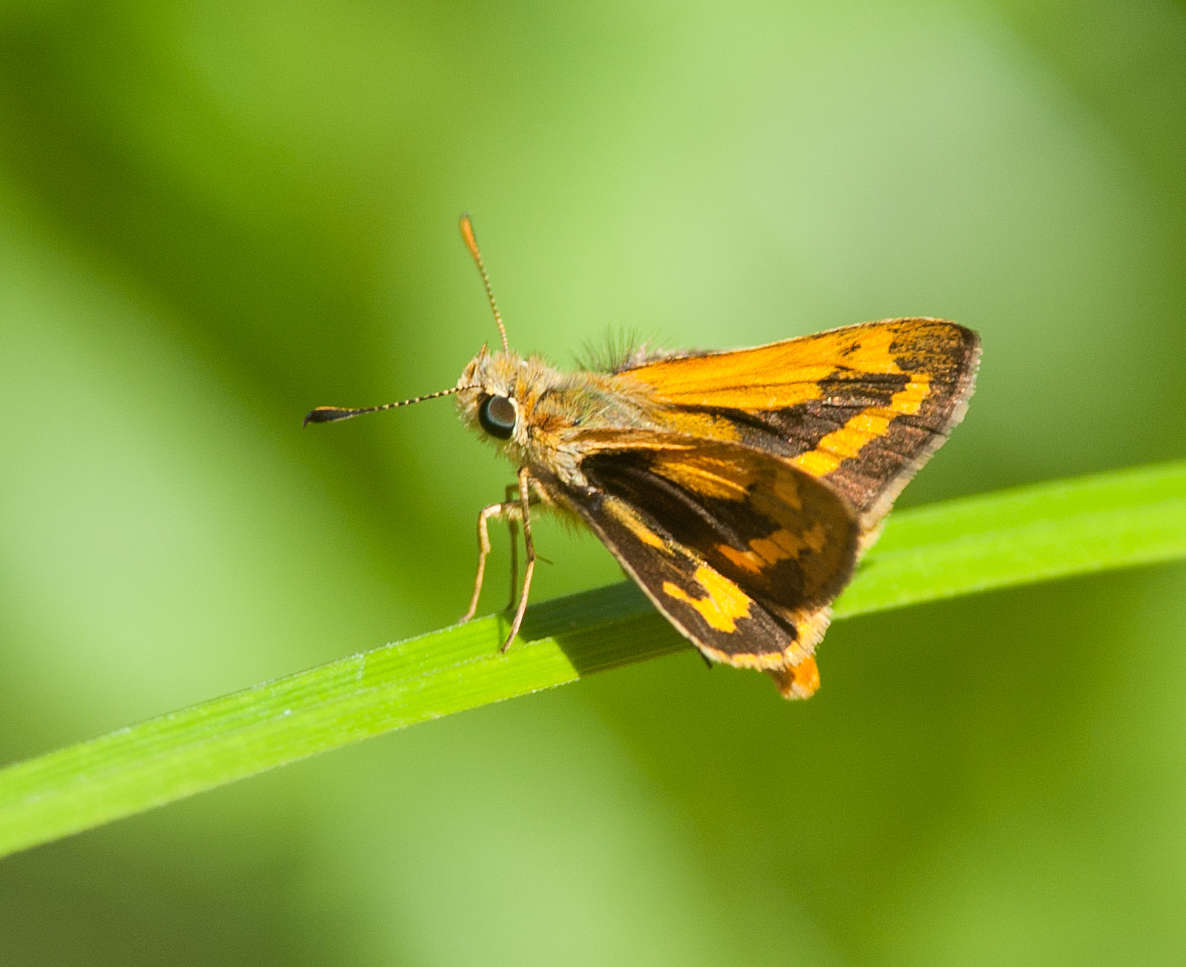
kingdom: Animalia
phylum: Arthropoda
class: Insecta
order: Lepidoptera
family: Hesperiidae
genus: Ocybadistes
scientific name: Ocybadistes walkeri
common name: Yellow-banded dart
